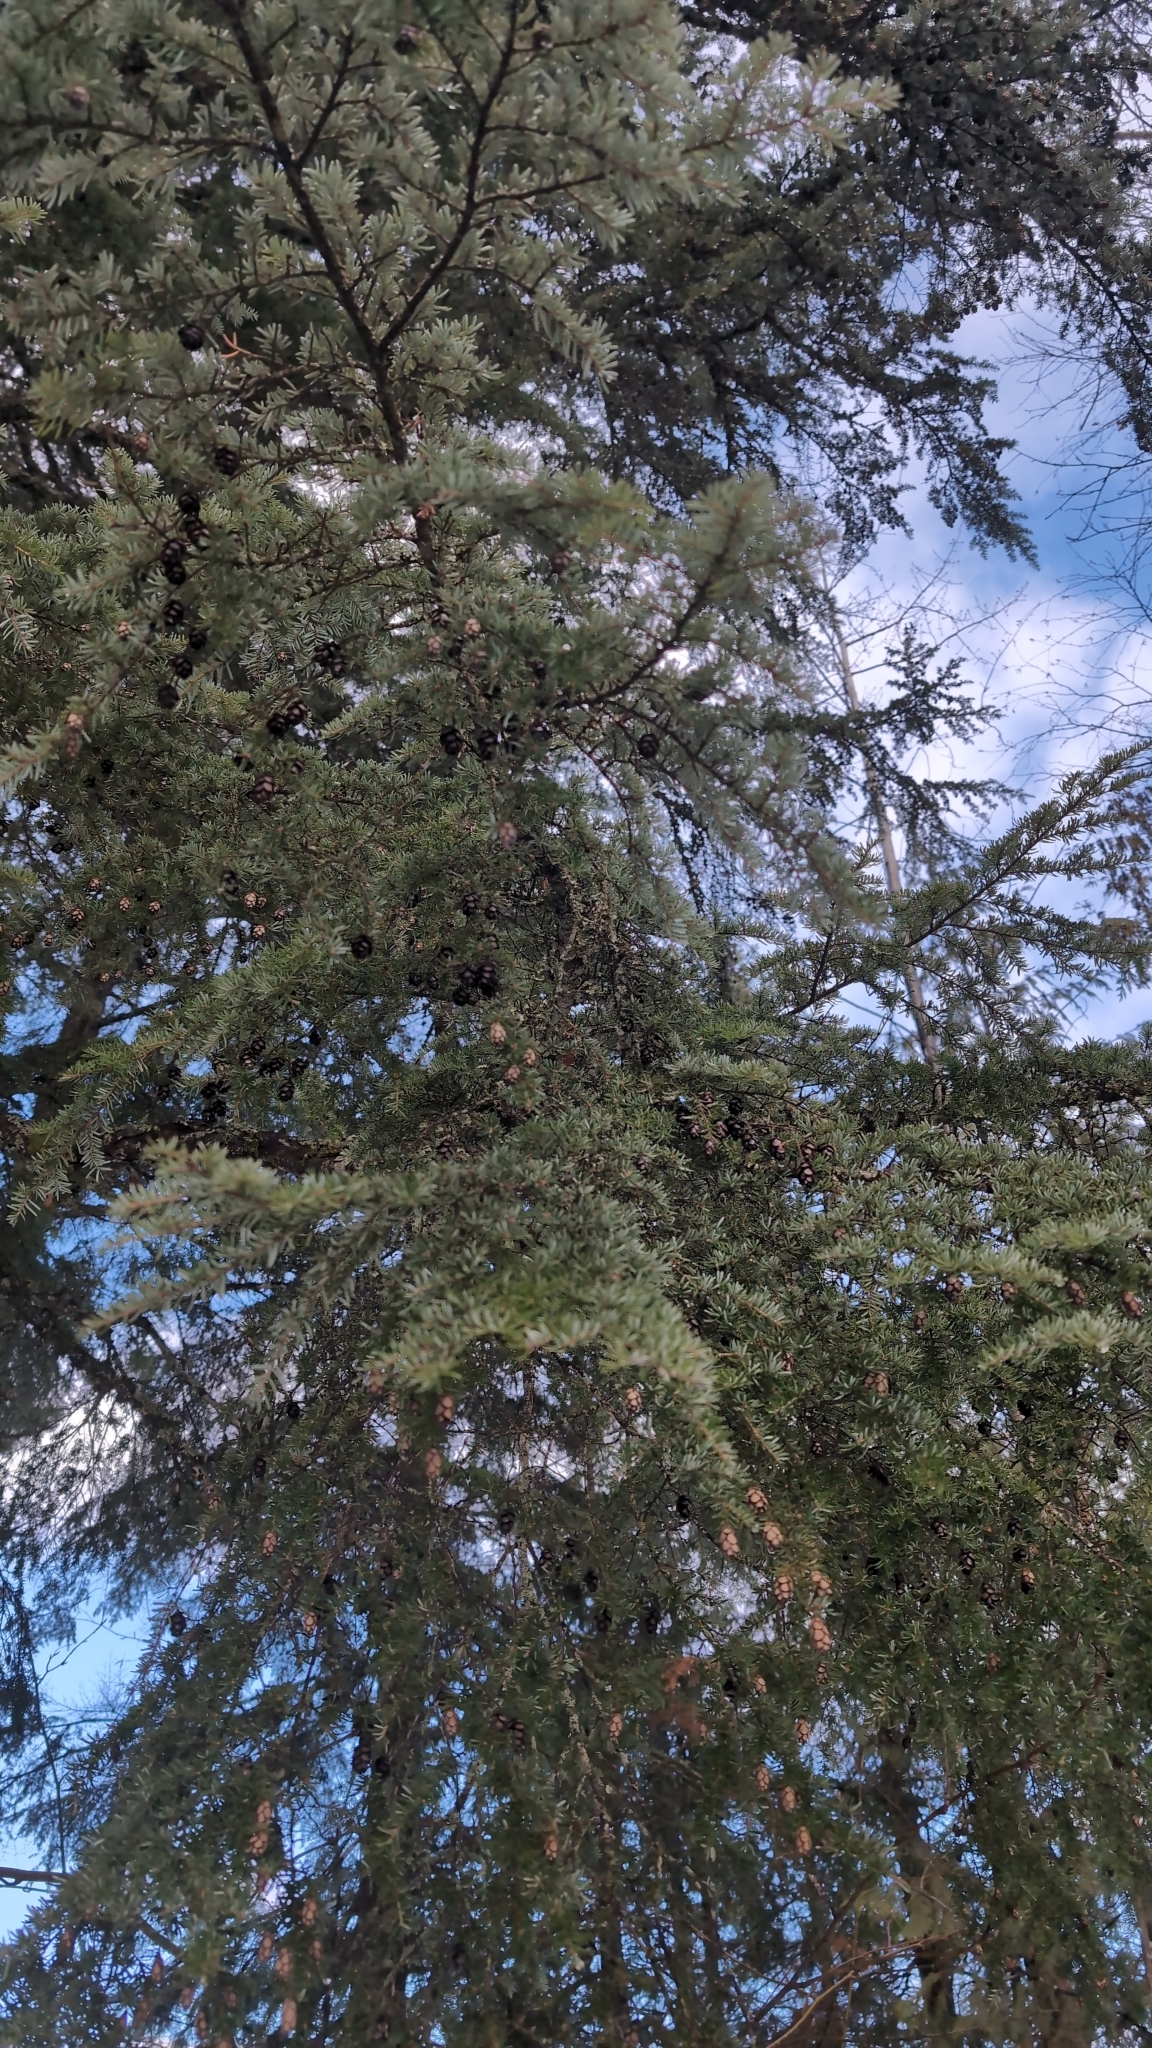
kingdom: Plantae
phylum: Tracheophyta
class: Pinopsida
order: Pinales
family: Pinaceae
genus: Tsuga
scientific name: Tsuga heterophylla
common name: Western hemlock
